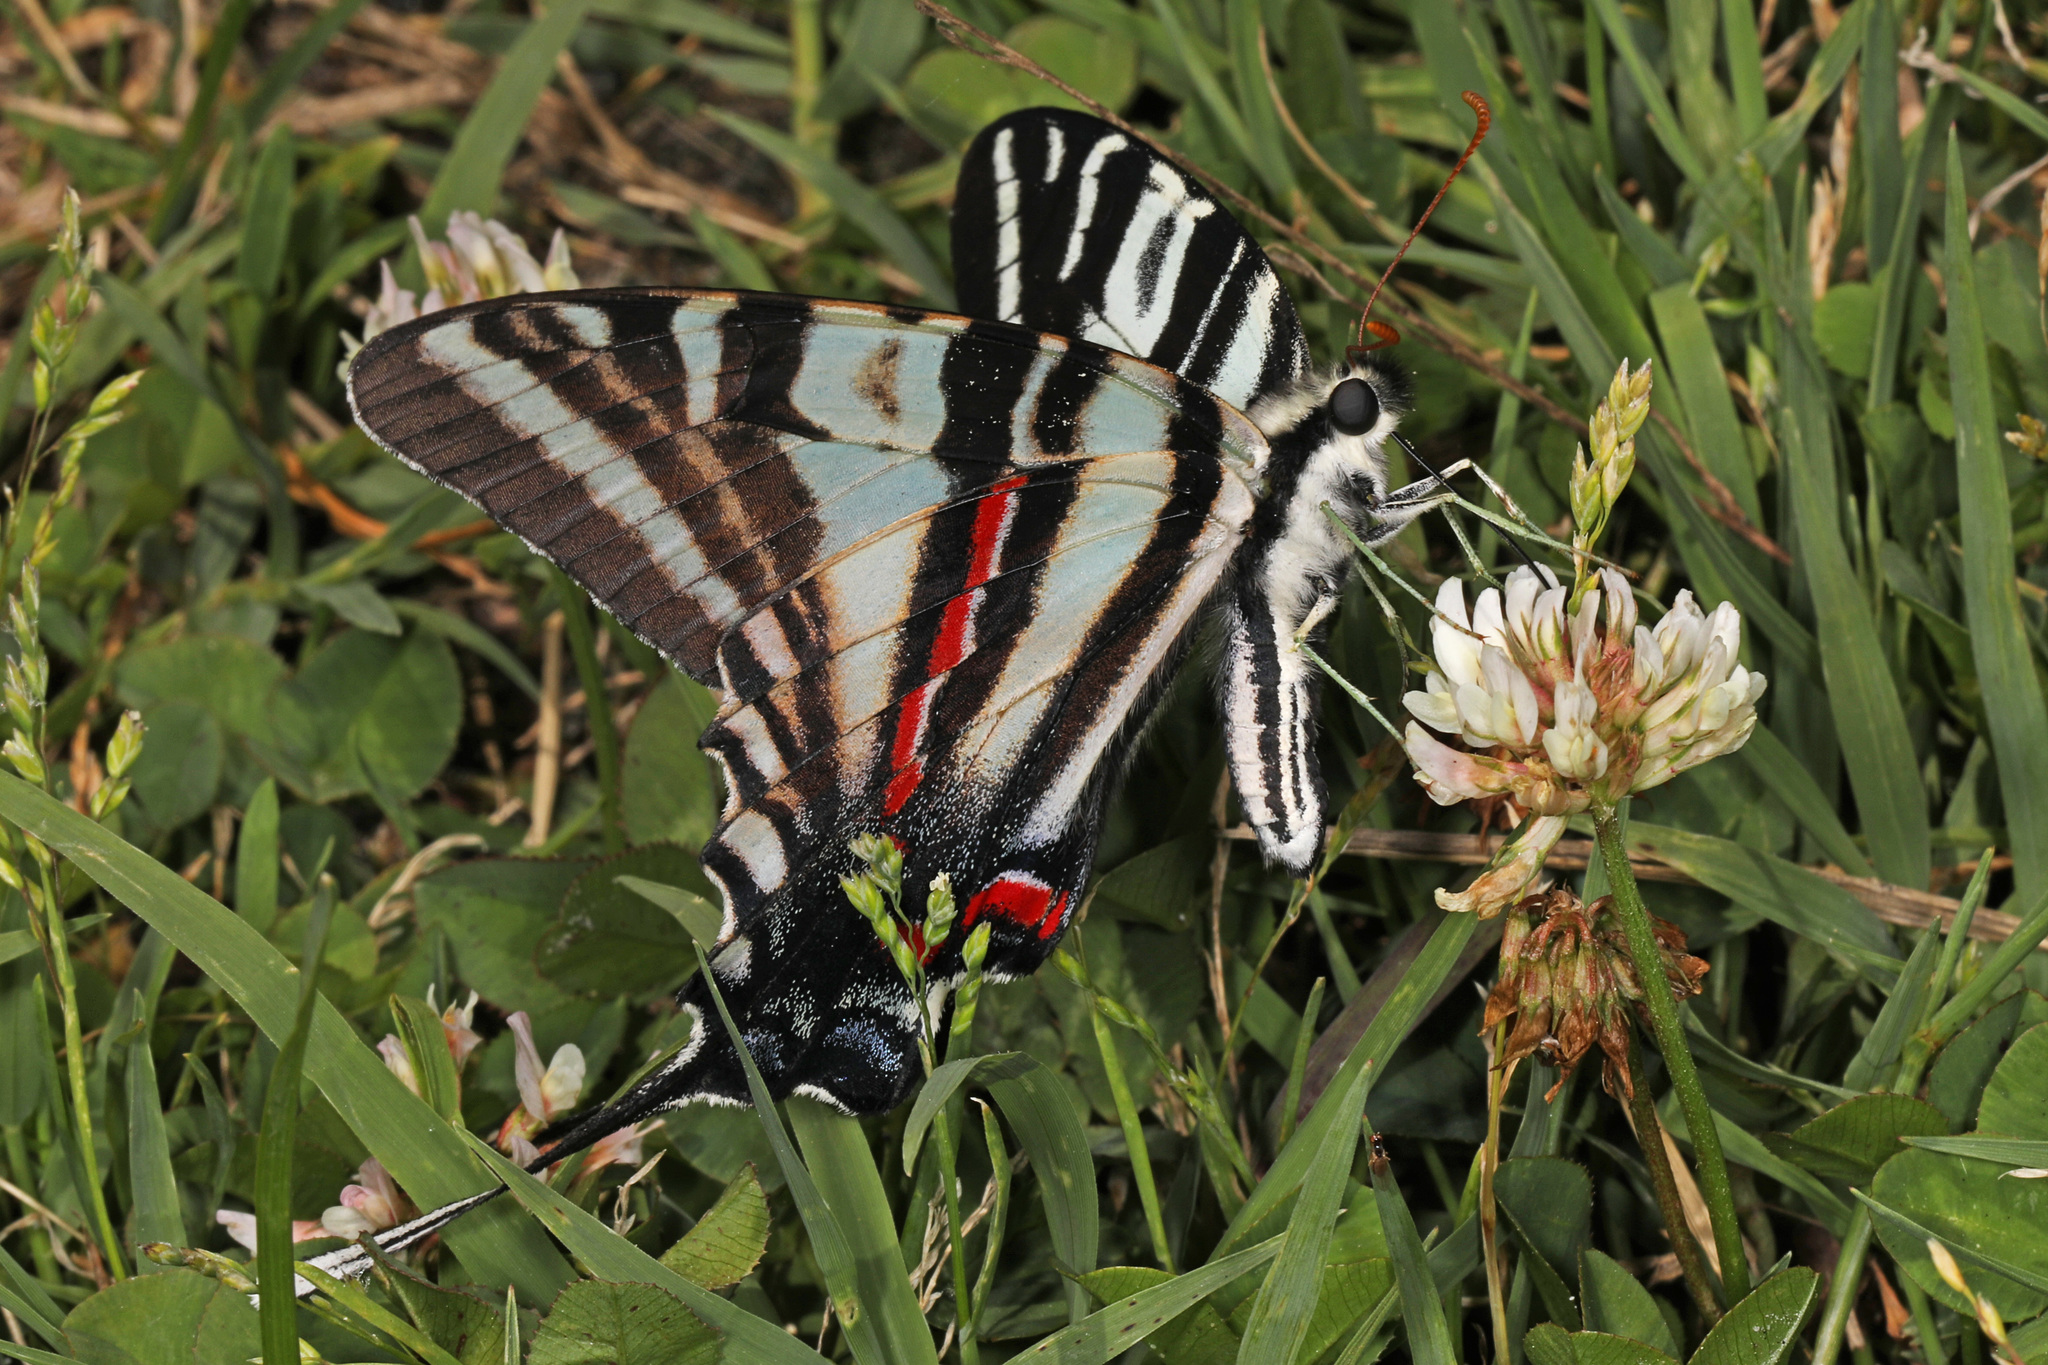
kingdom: Animalia
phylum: Arthropoda
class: Insecta
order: Lepidoptera
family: Papilionidae
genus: Protographium
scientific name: Protographium marcellus
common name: Zebra swallowtail
